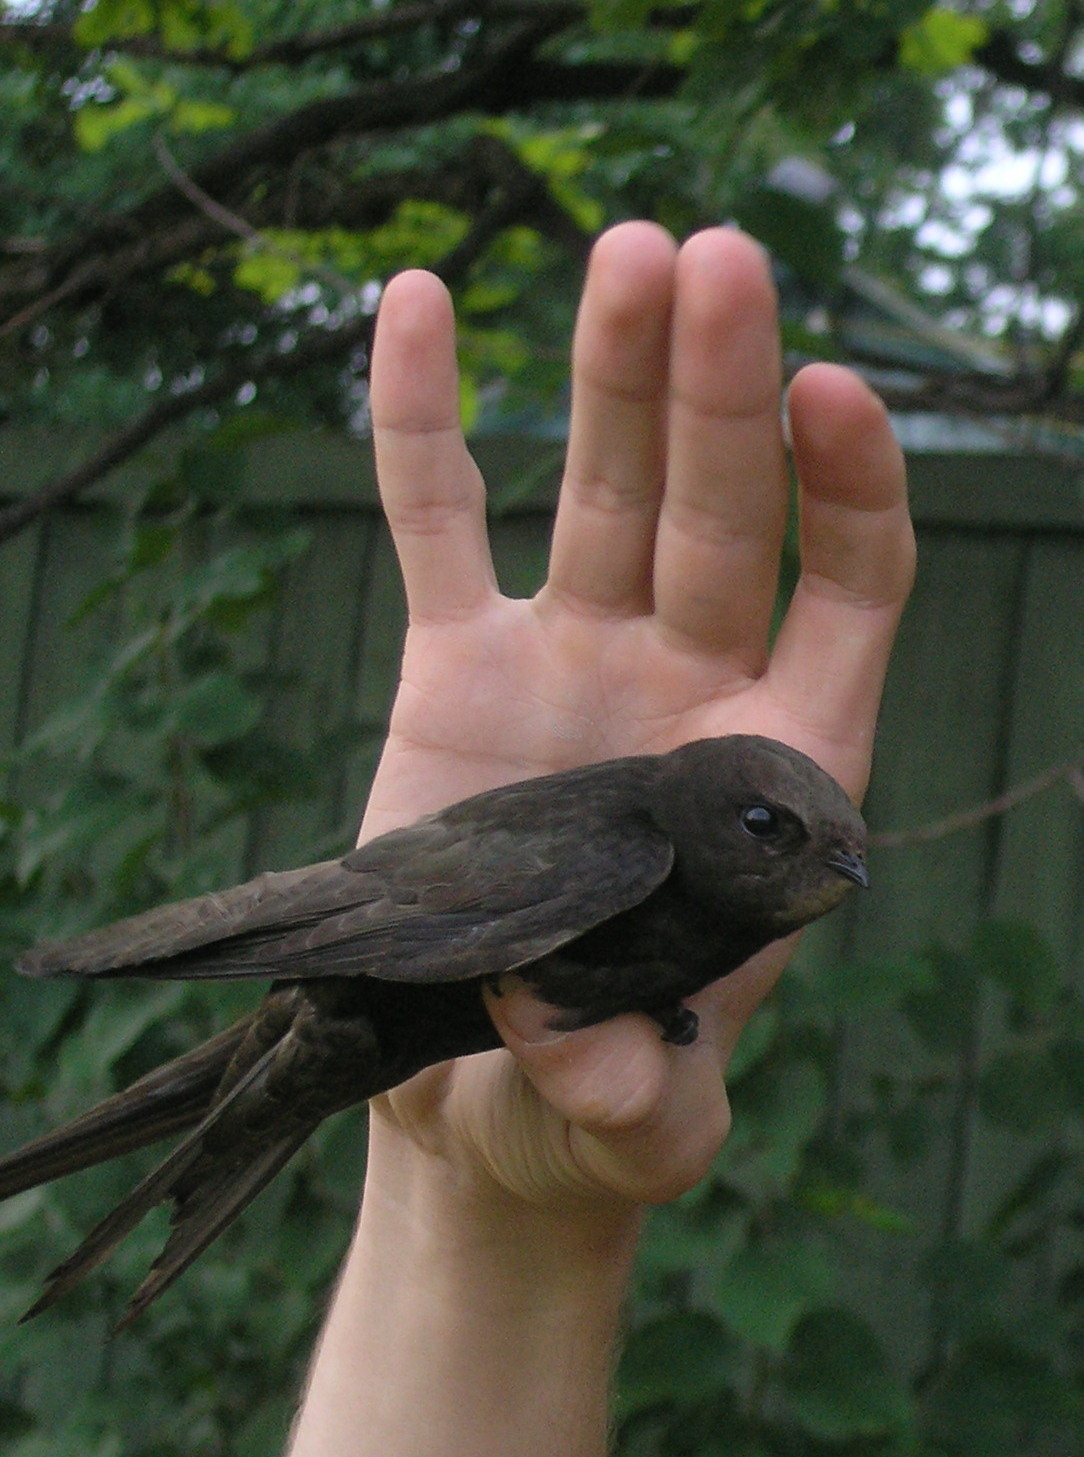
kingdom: Animalia
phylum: Chordata
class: Aves
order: Apodiformes
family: Apodidae
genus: Apus
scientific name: Apus apus
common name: Common swift
